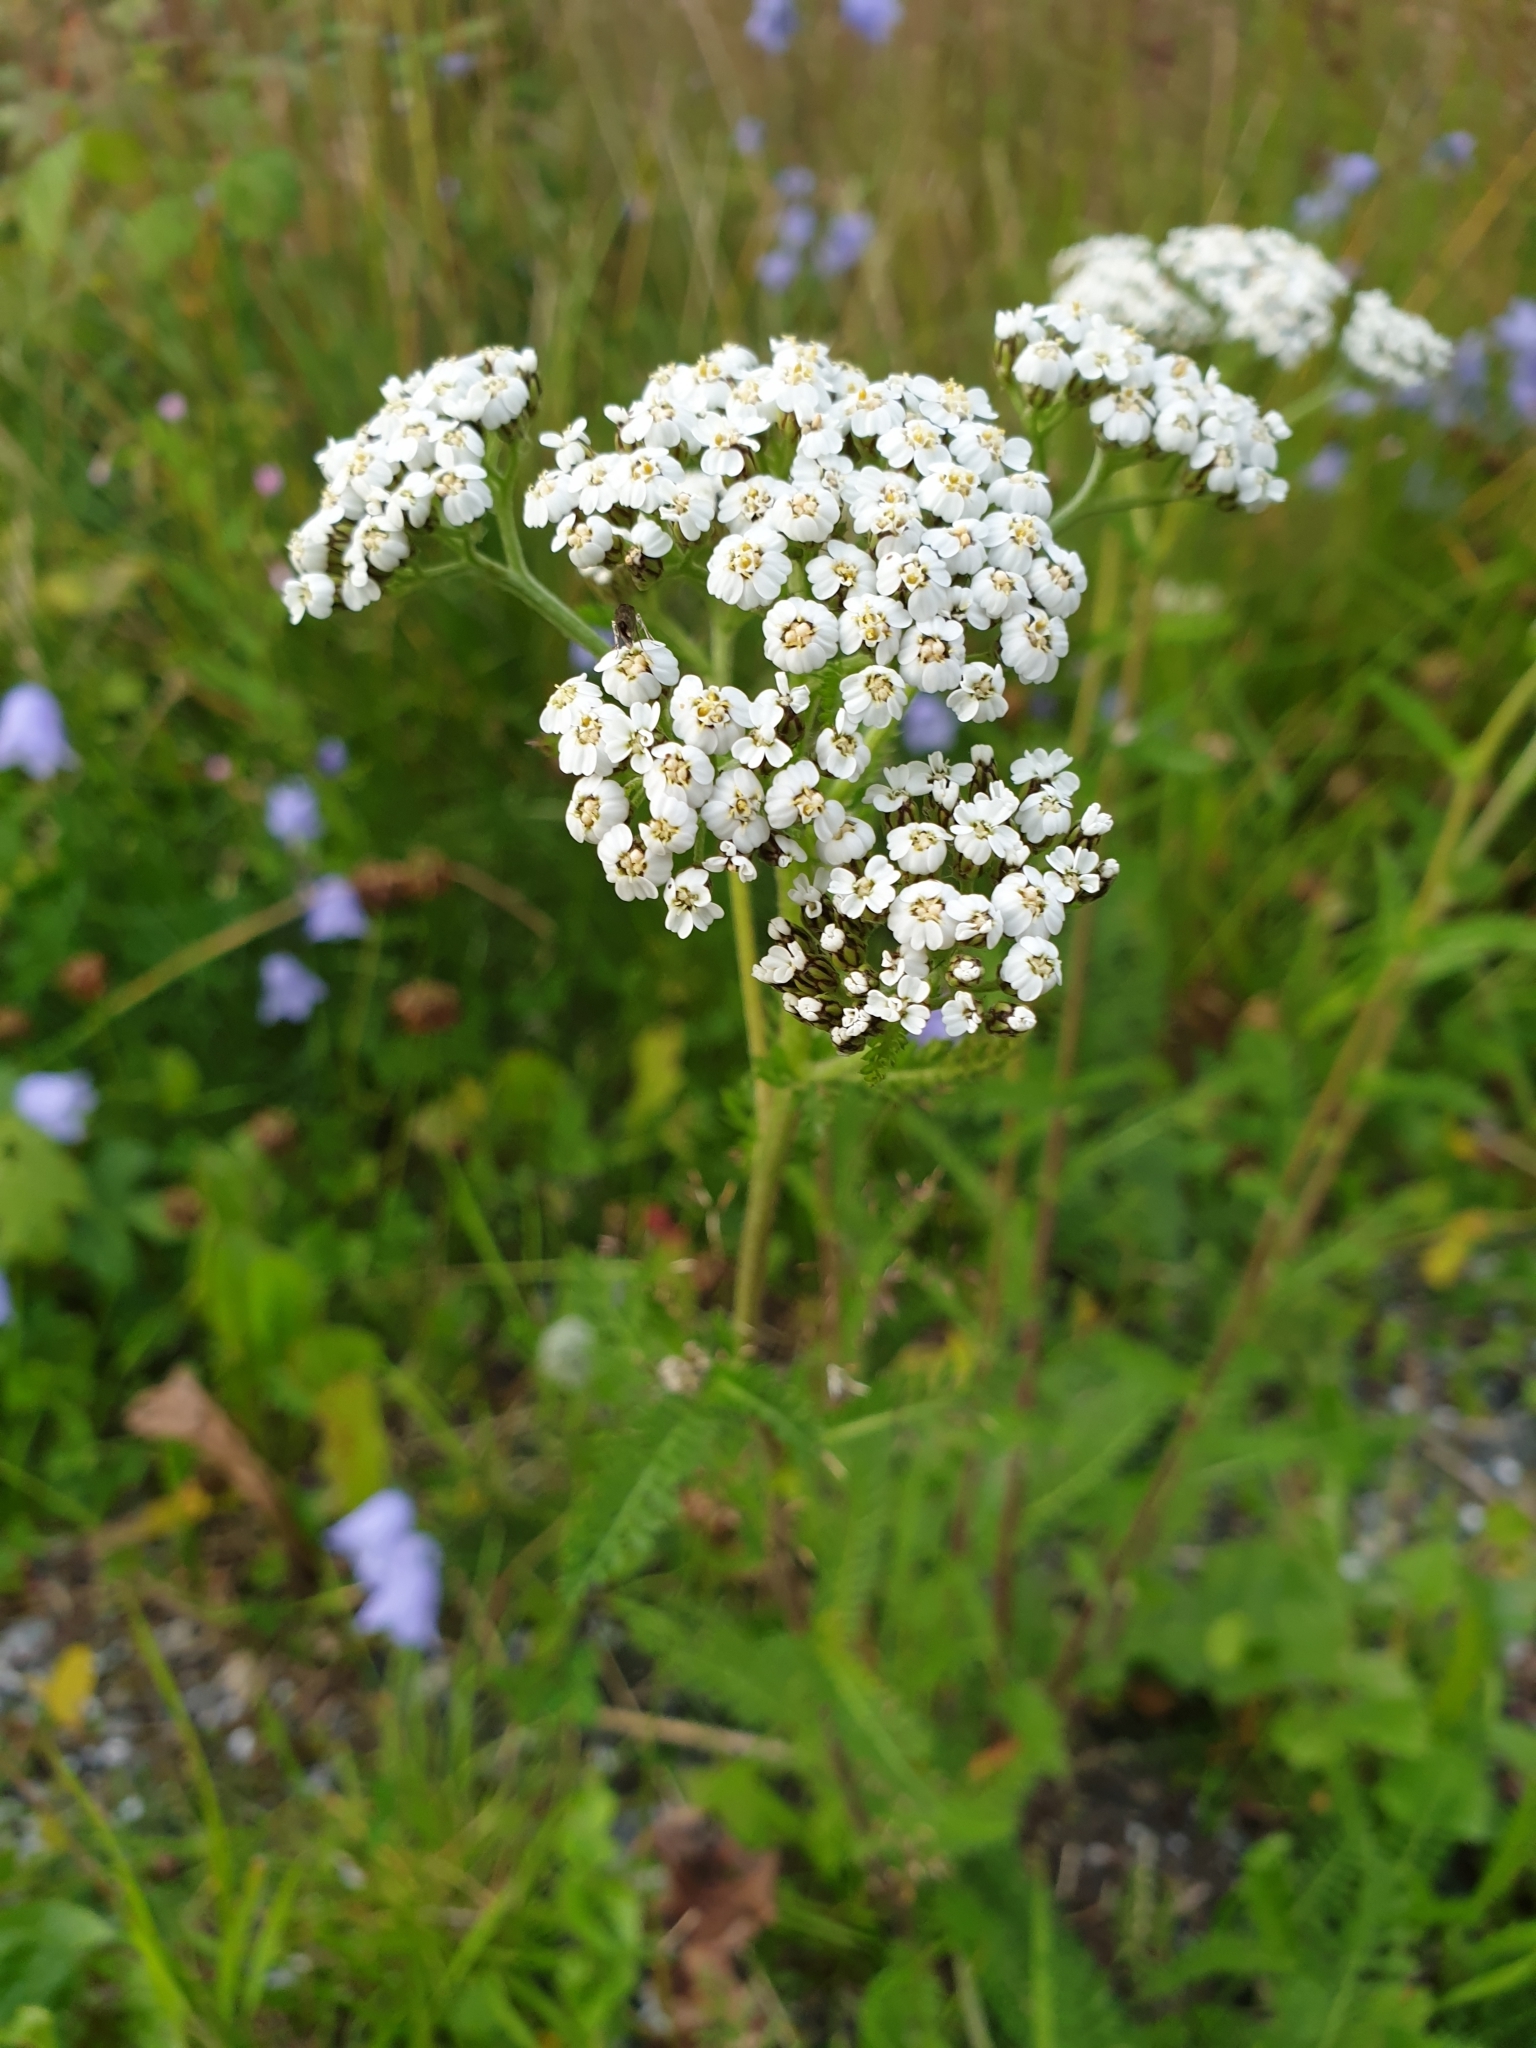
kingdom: Plantae
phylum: Tracheophyta
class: Magnoliopsida
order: Asterales
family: Asteraceae
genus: Achillea
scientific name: Achillea millefolium
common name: Yarrow
